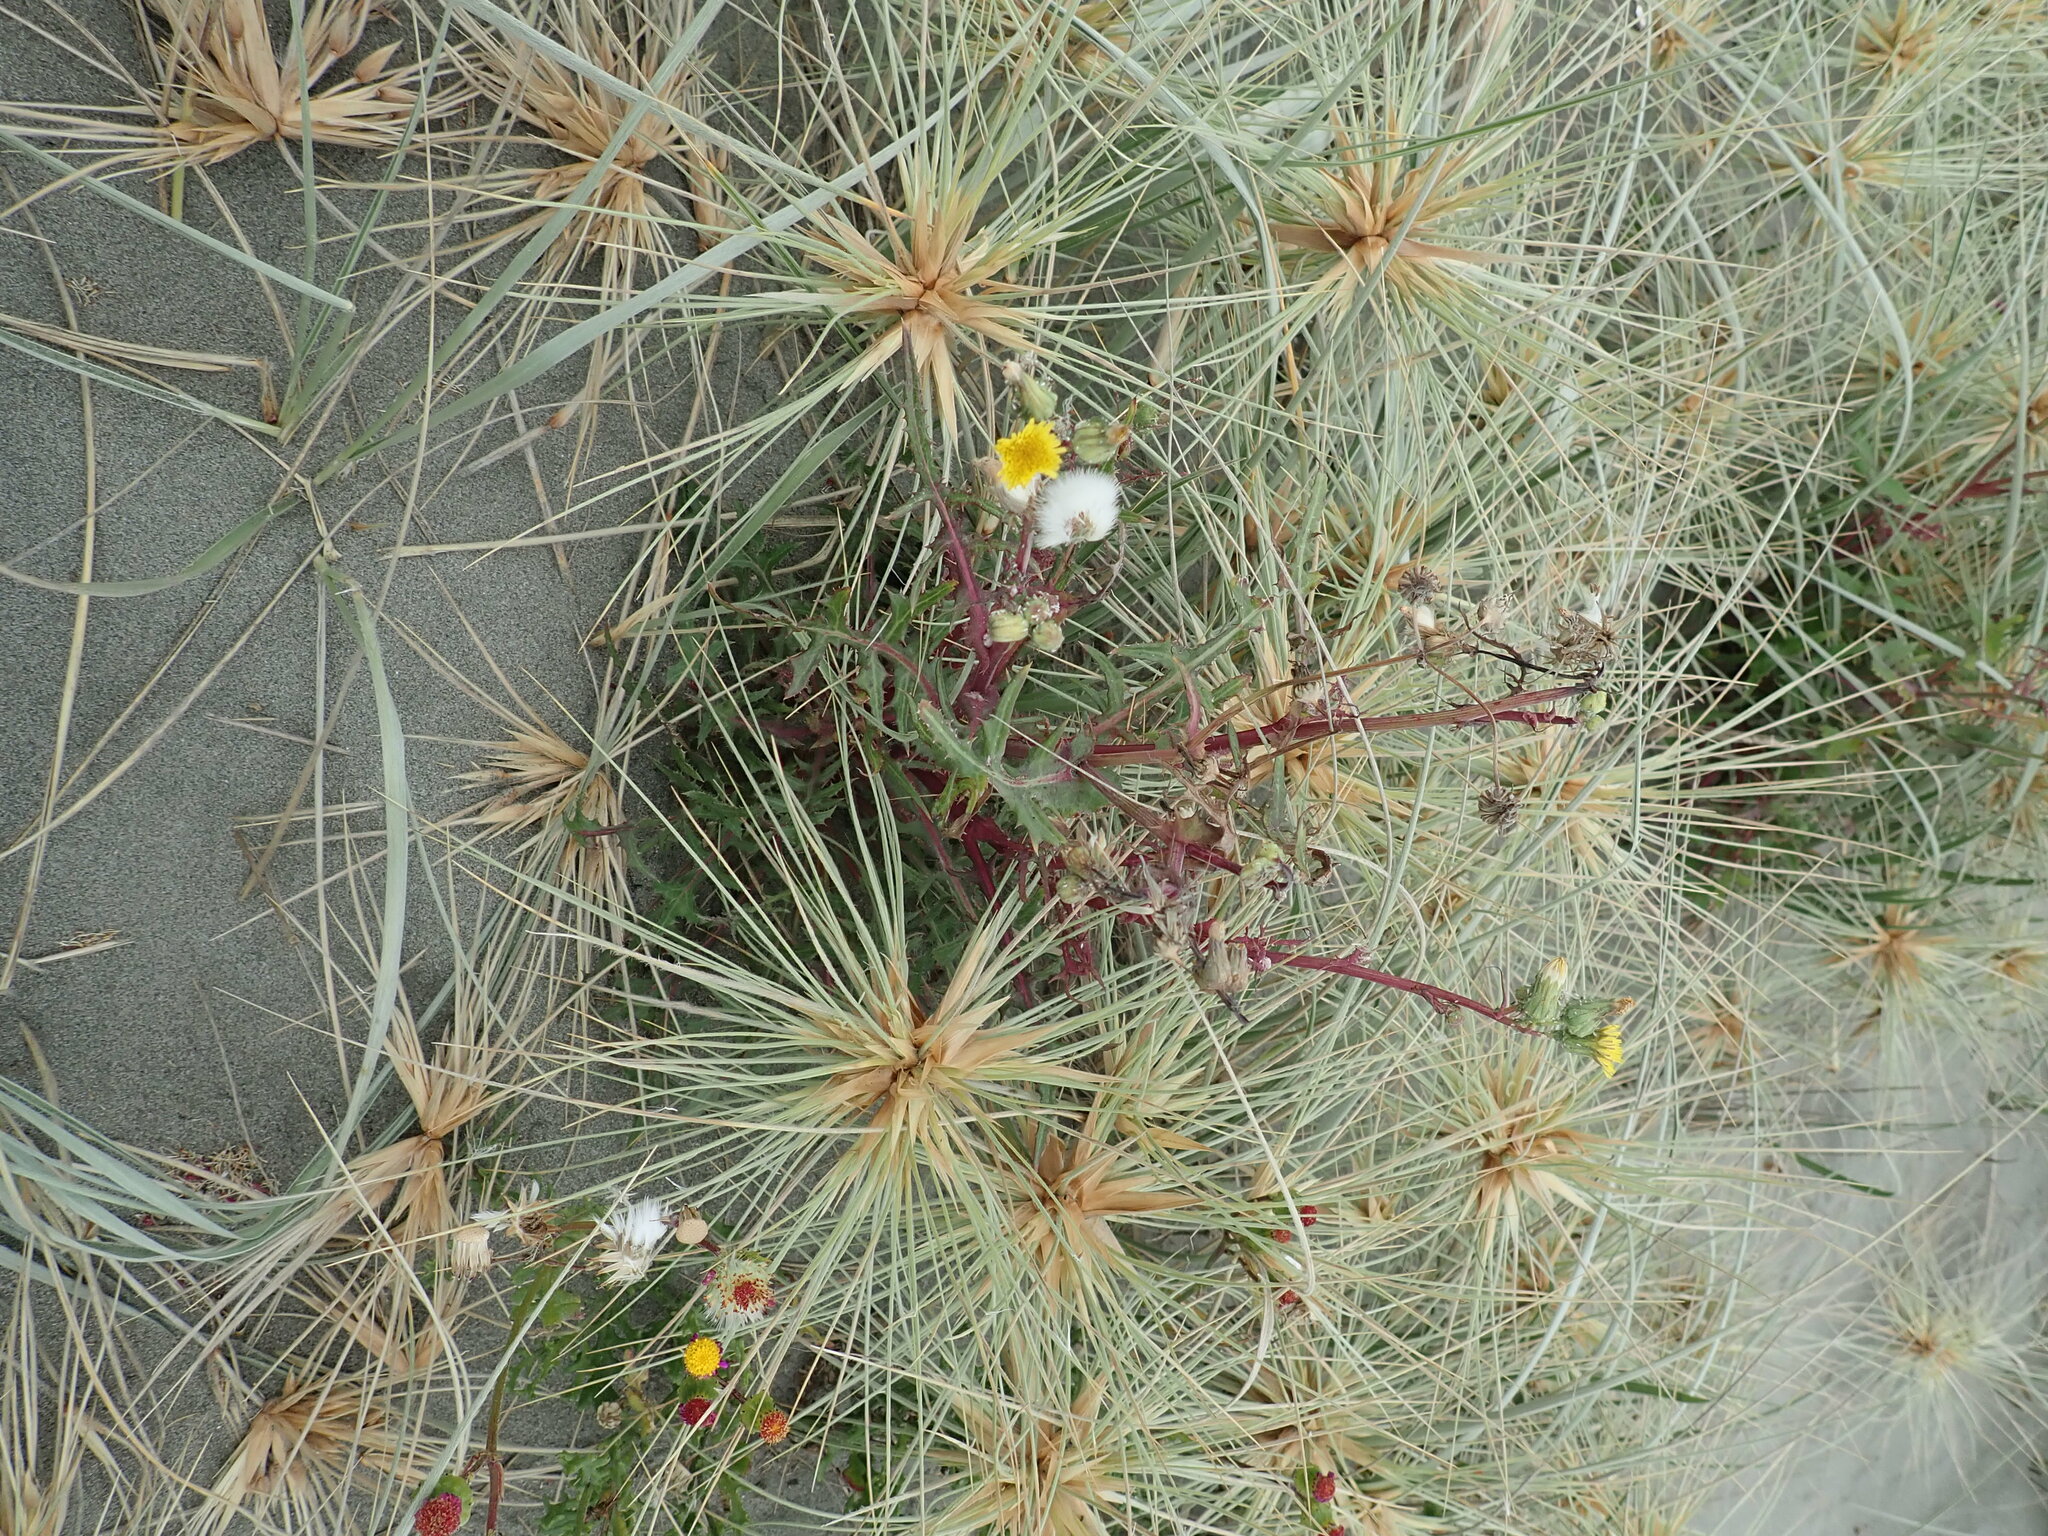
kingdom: Plantae
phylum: Tracheophyta
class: Magnoliopsida
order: Asterales
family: Asteraceae
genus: Sonchus
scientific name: Sonchus oleraceus
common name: Common sowthistle
